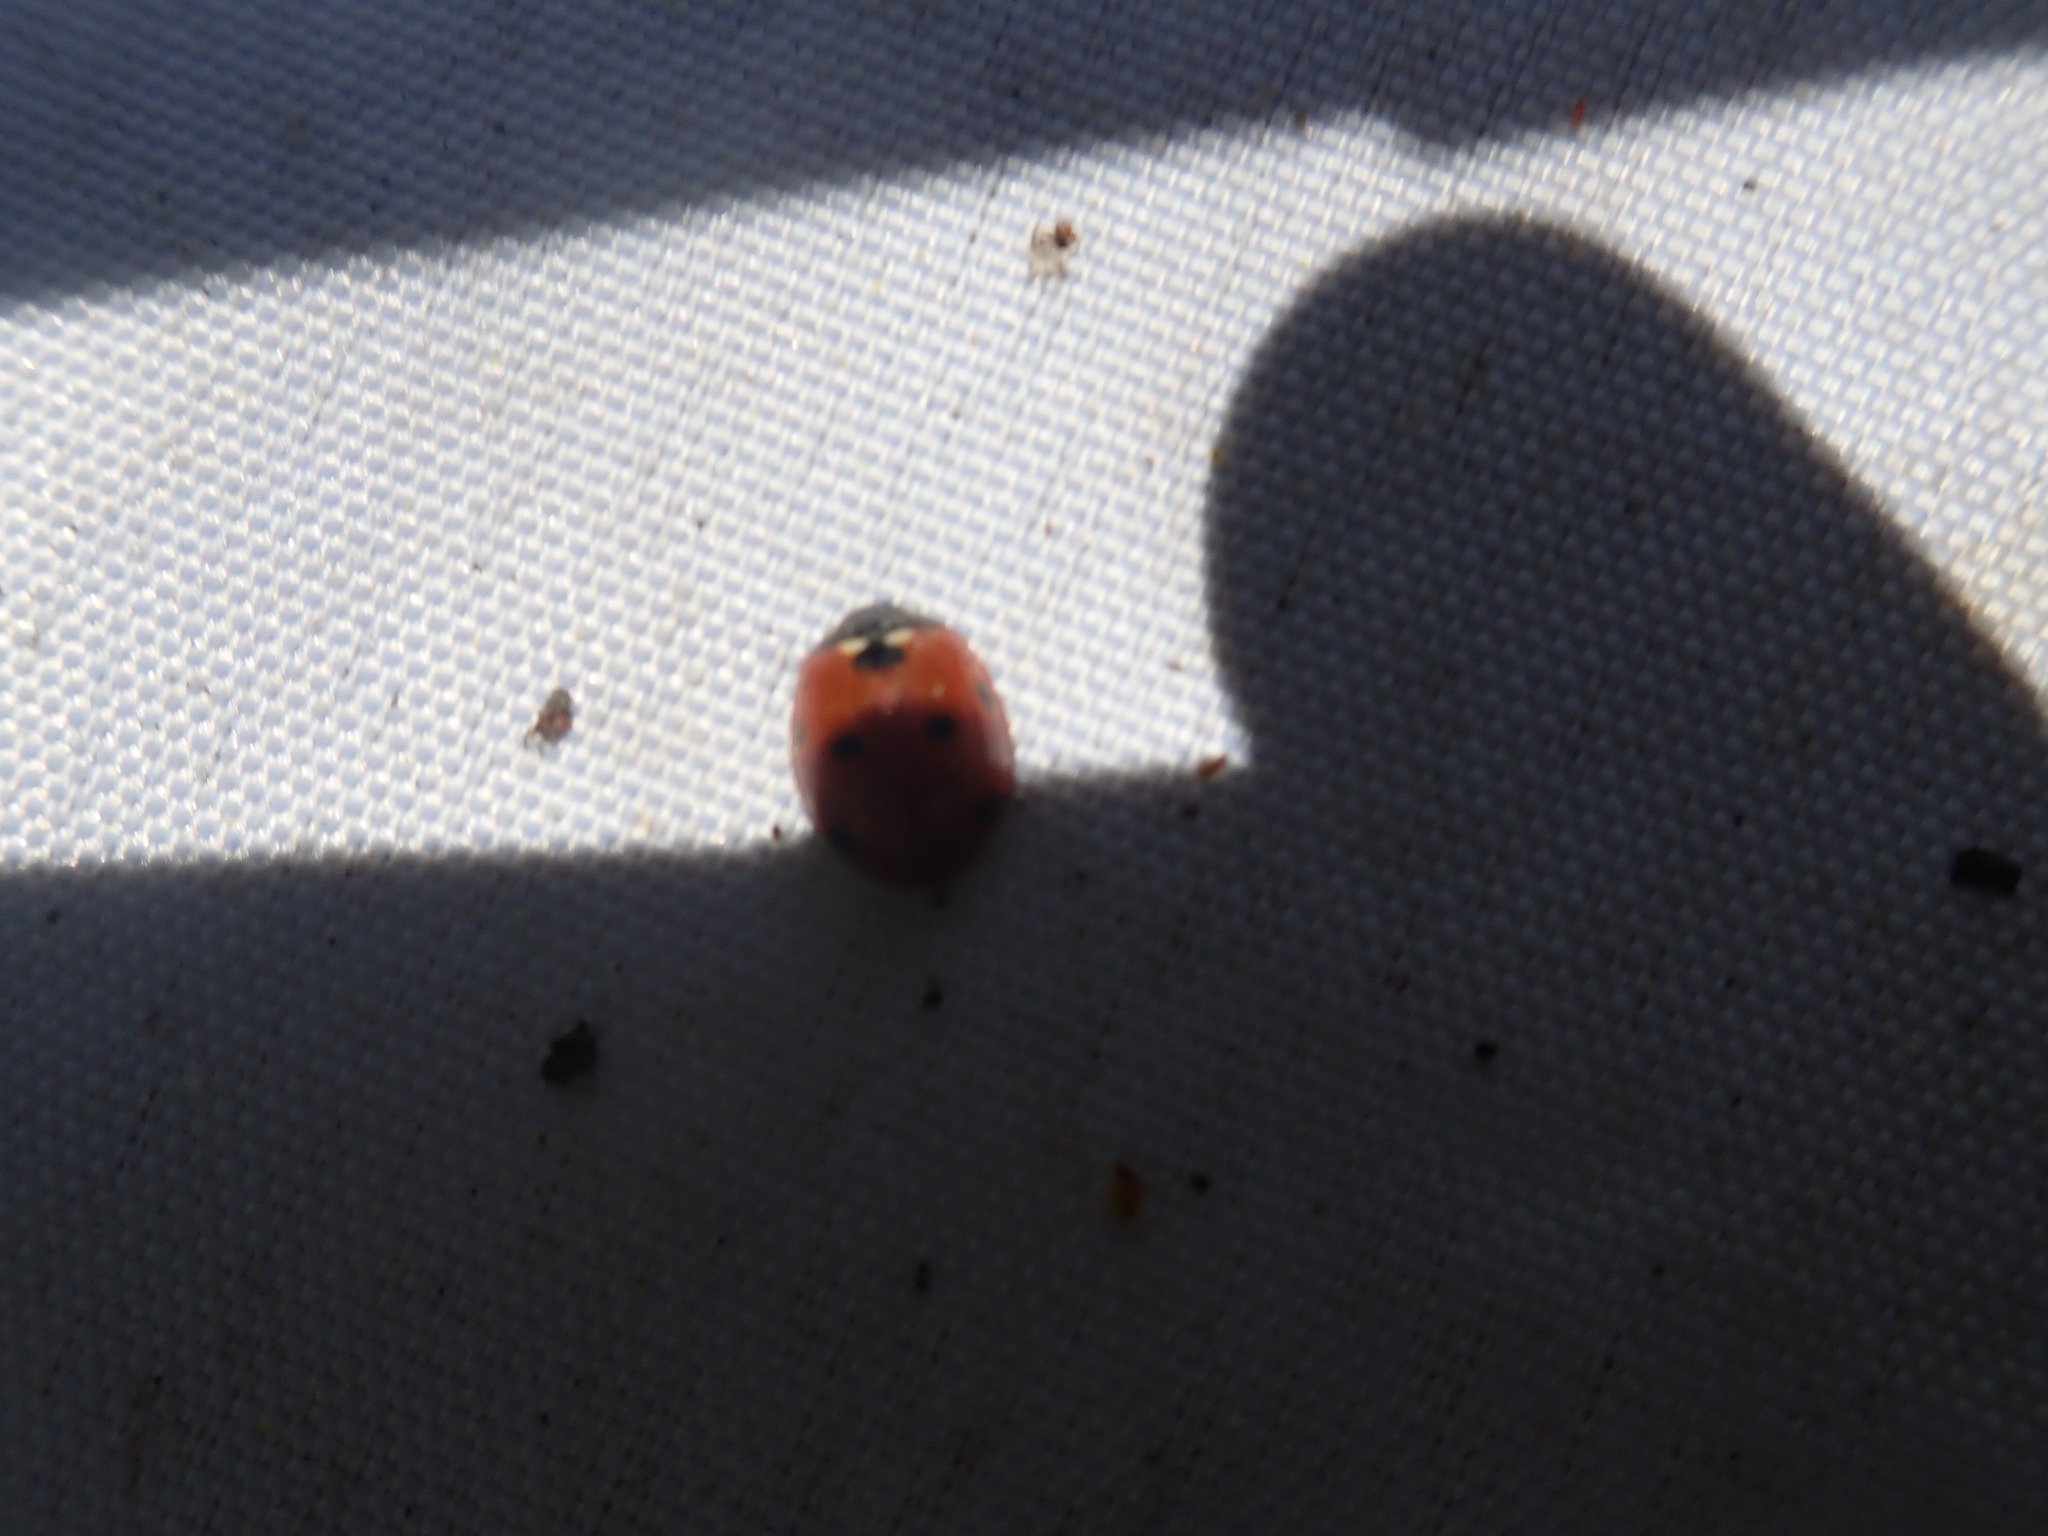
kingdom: Animalia
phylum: Arthropoda
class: Insecta
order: Coleoptera
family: Coccinellidae
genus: Coccinella
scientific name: Coccinella septempunctata
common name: Sevenspotted lady beetle
